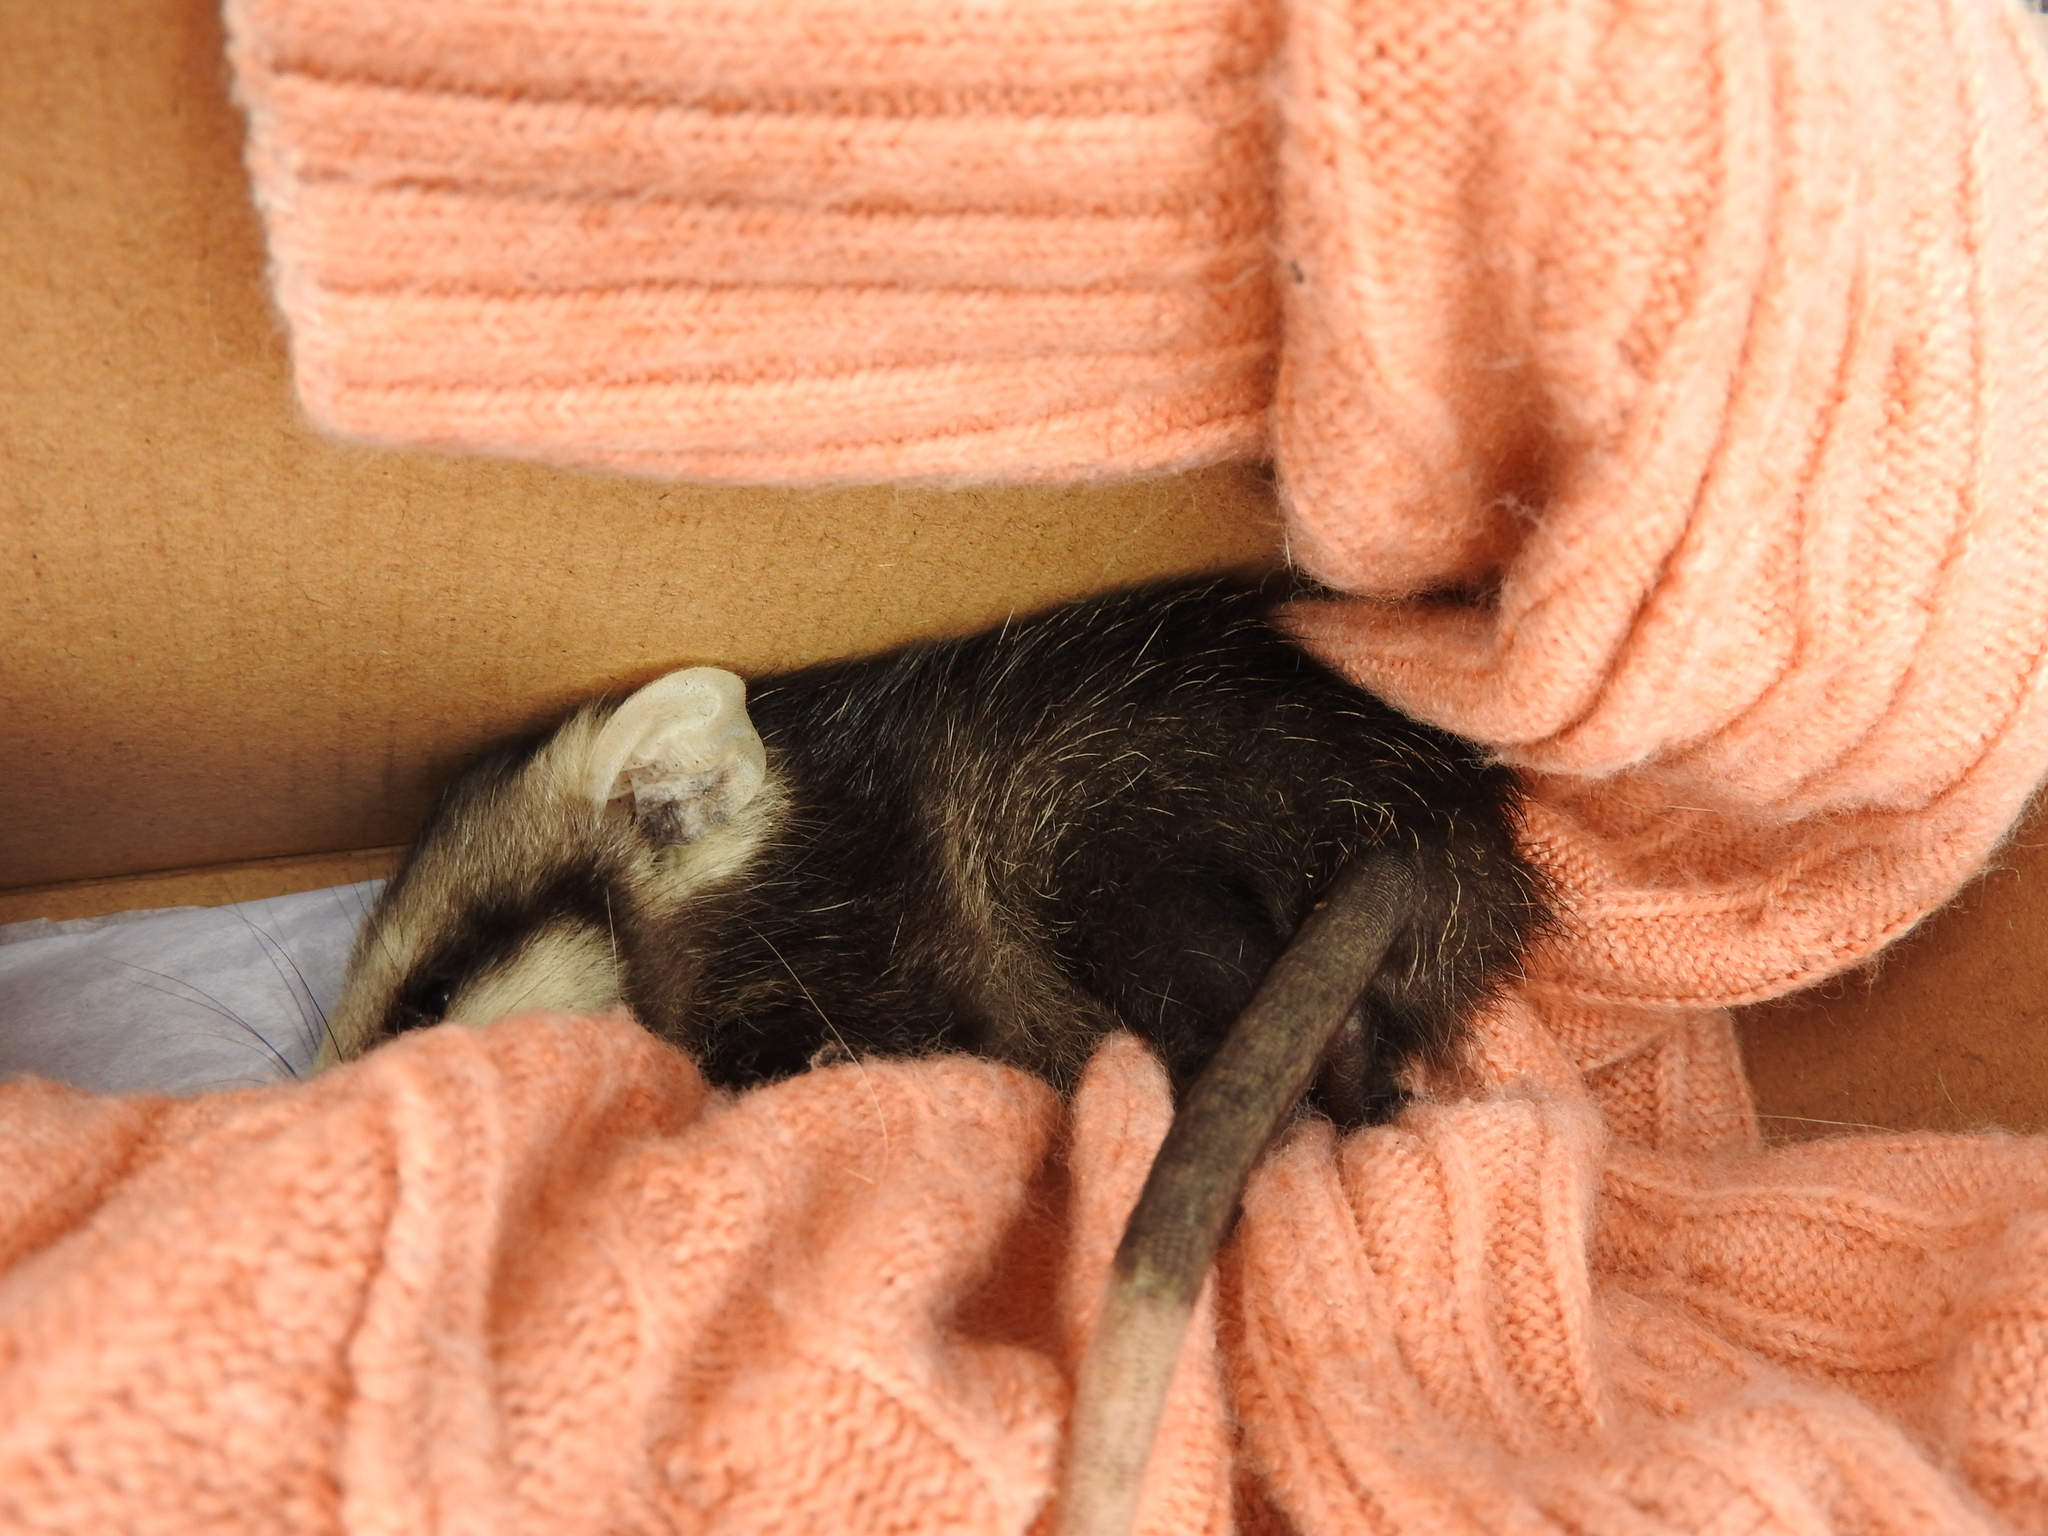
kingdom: Animalia
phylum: Chordata
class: Mammalia
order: Didelphimorphia
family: Didelphidae
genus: Didelphis
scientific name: Didelphis virginiana
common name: Virginia opossum
